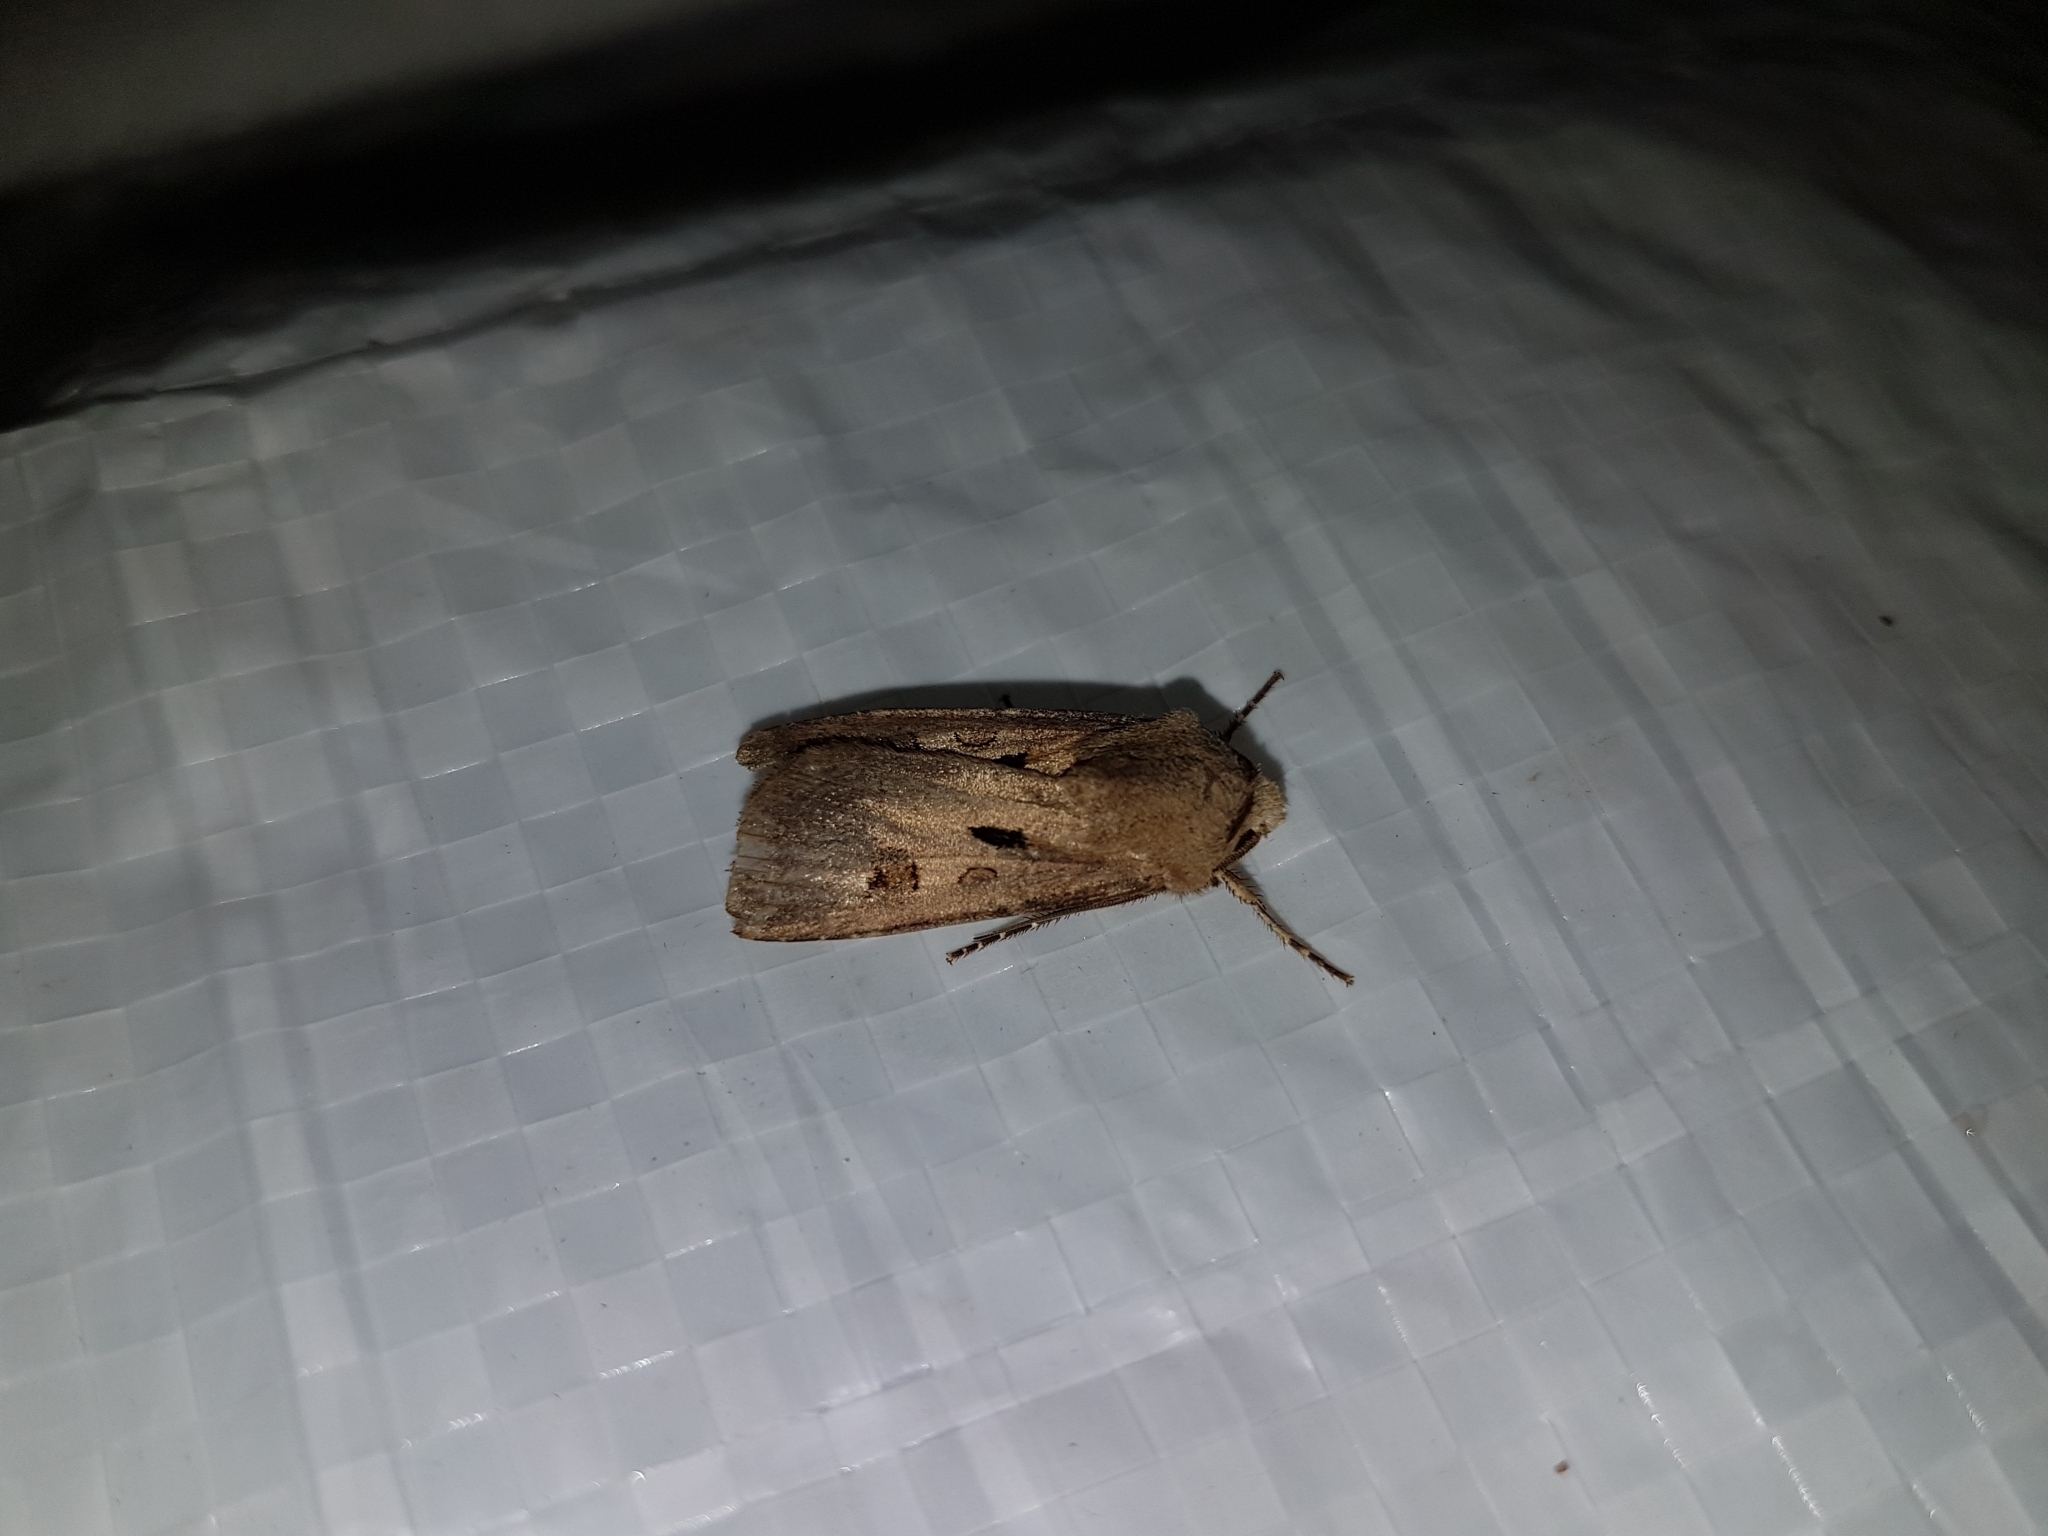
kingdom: Animalia
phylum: Arthropoda
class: Insecta
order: Lepidoptera
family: Noctuidae
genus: Agrotis
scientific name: Agrotis exclamationis
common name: Heart and dart
